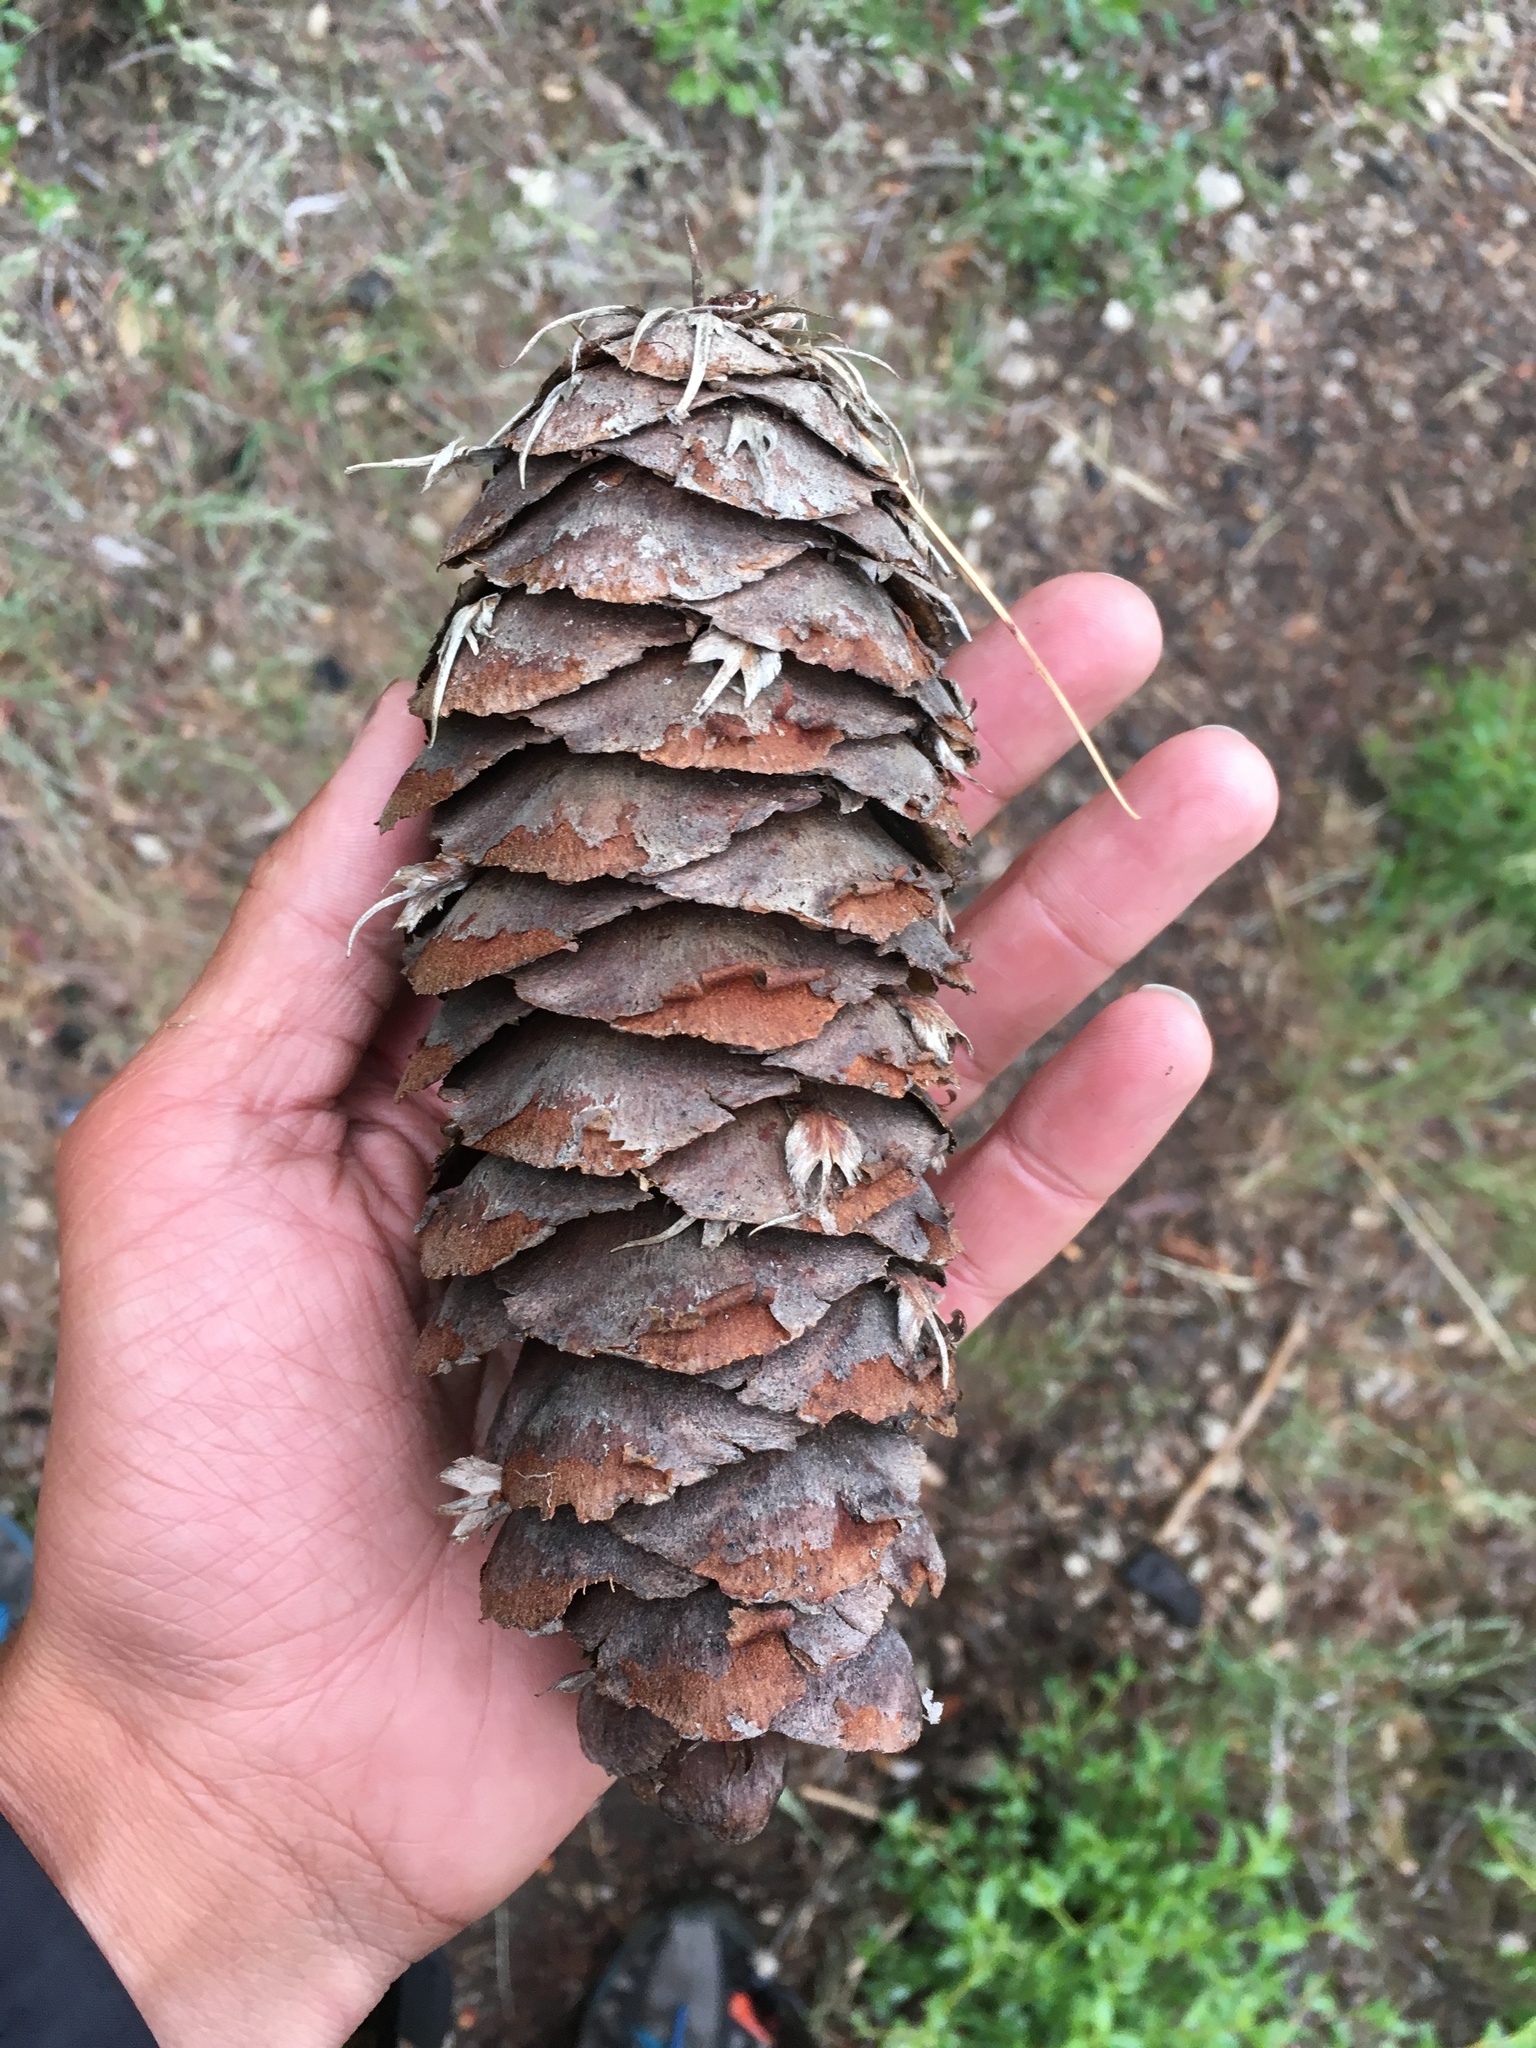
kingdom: Plantae
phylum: Tracheophyta
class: Pinopsida
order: Pinales
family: Pinaceae
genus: Pseudotsuga
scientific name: Pseudotsuga macrocarpa
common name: Big-cone douglas-fir
